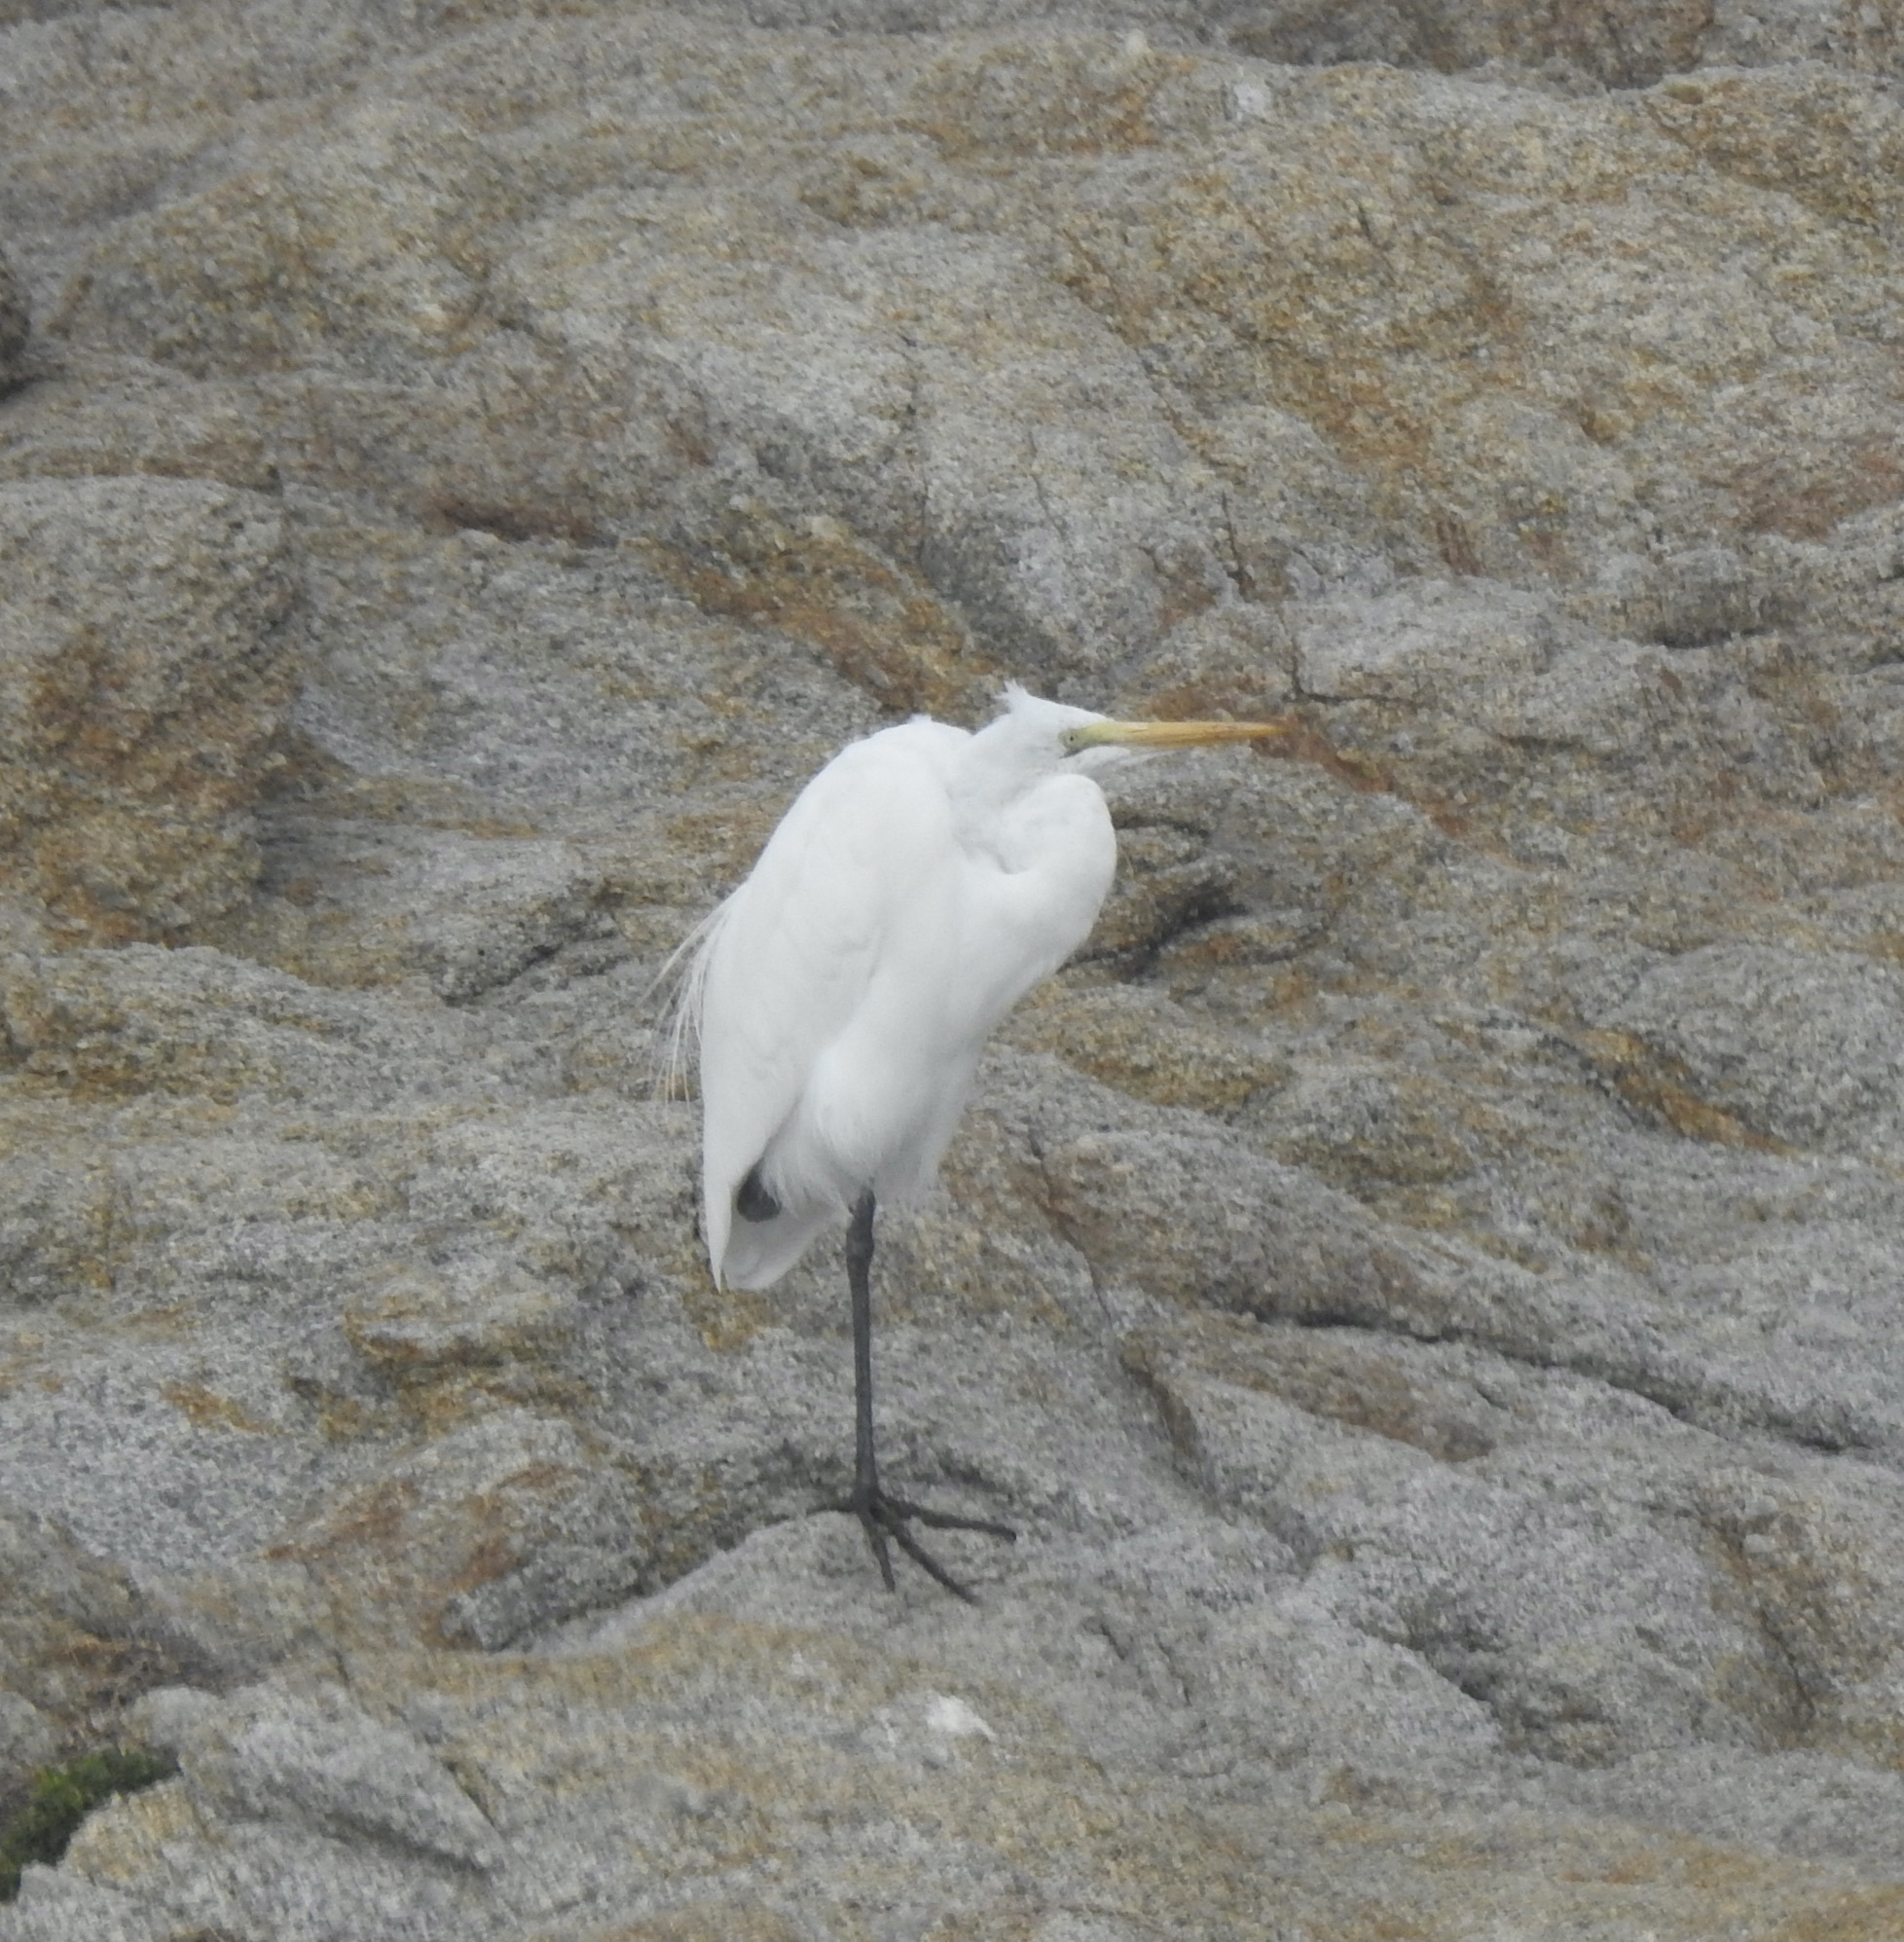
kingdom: Animalia
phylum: Chordata
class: Aves
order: Pelecaniformes
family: Ardeidae
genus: Ardea
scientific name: Ardea alba
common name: Great egret
